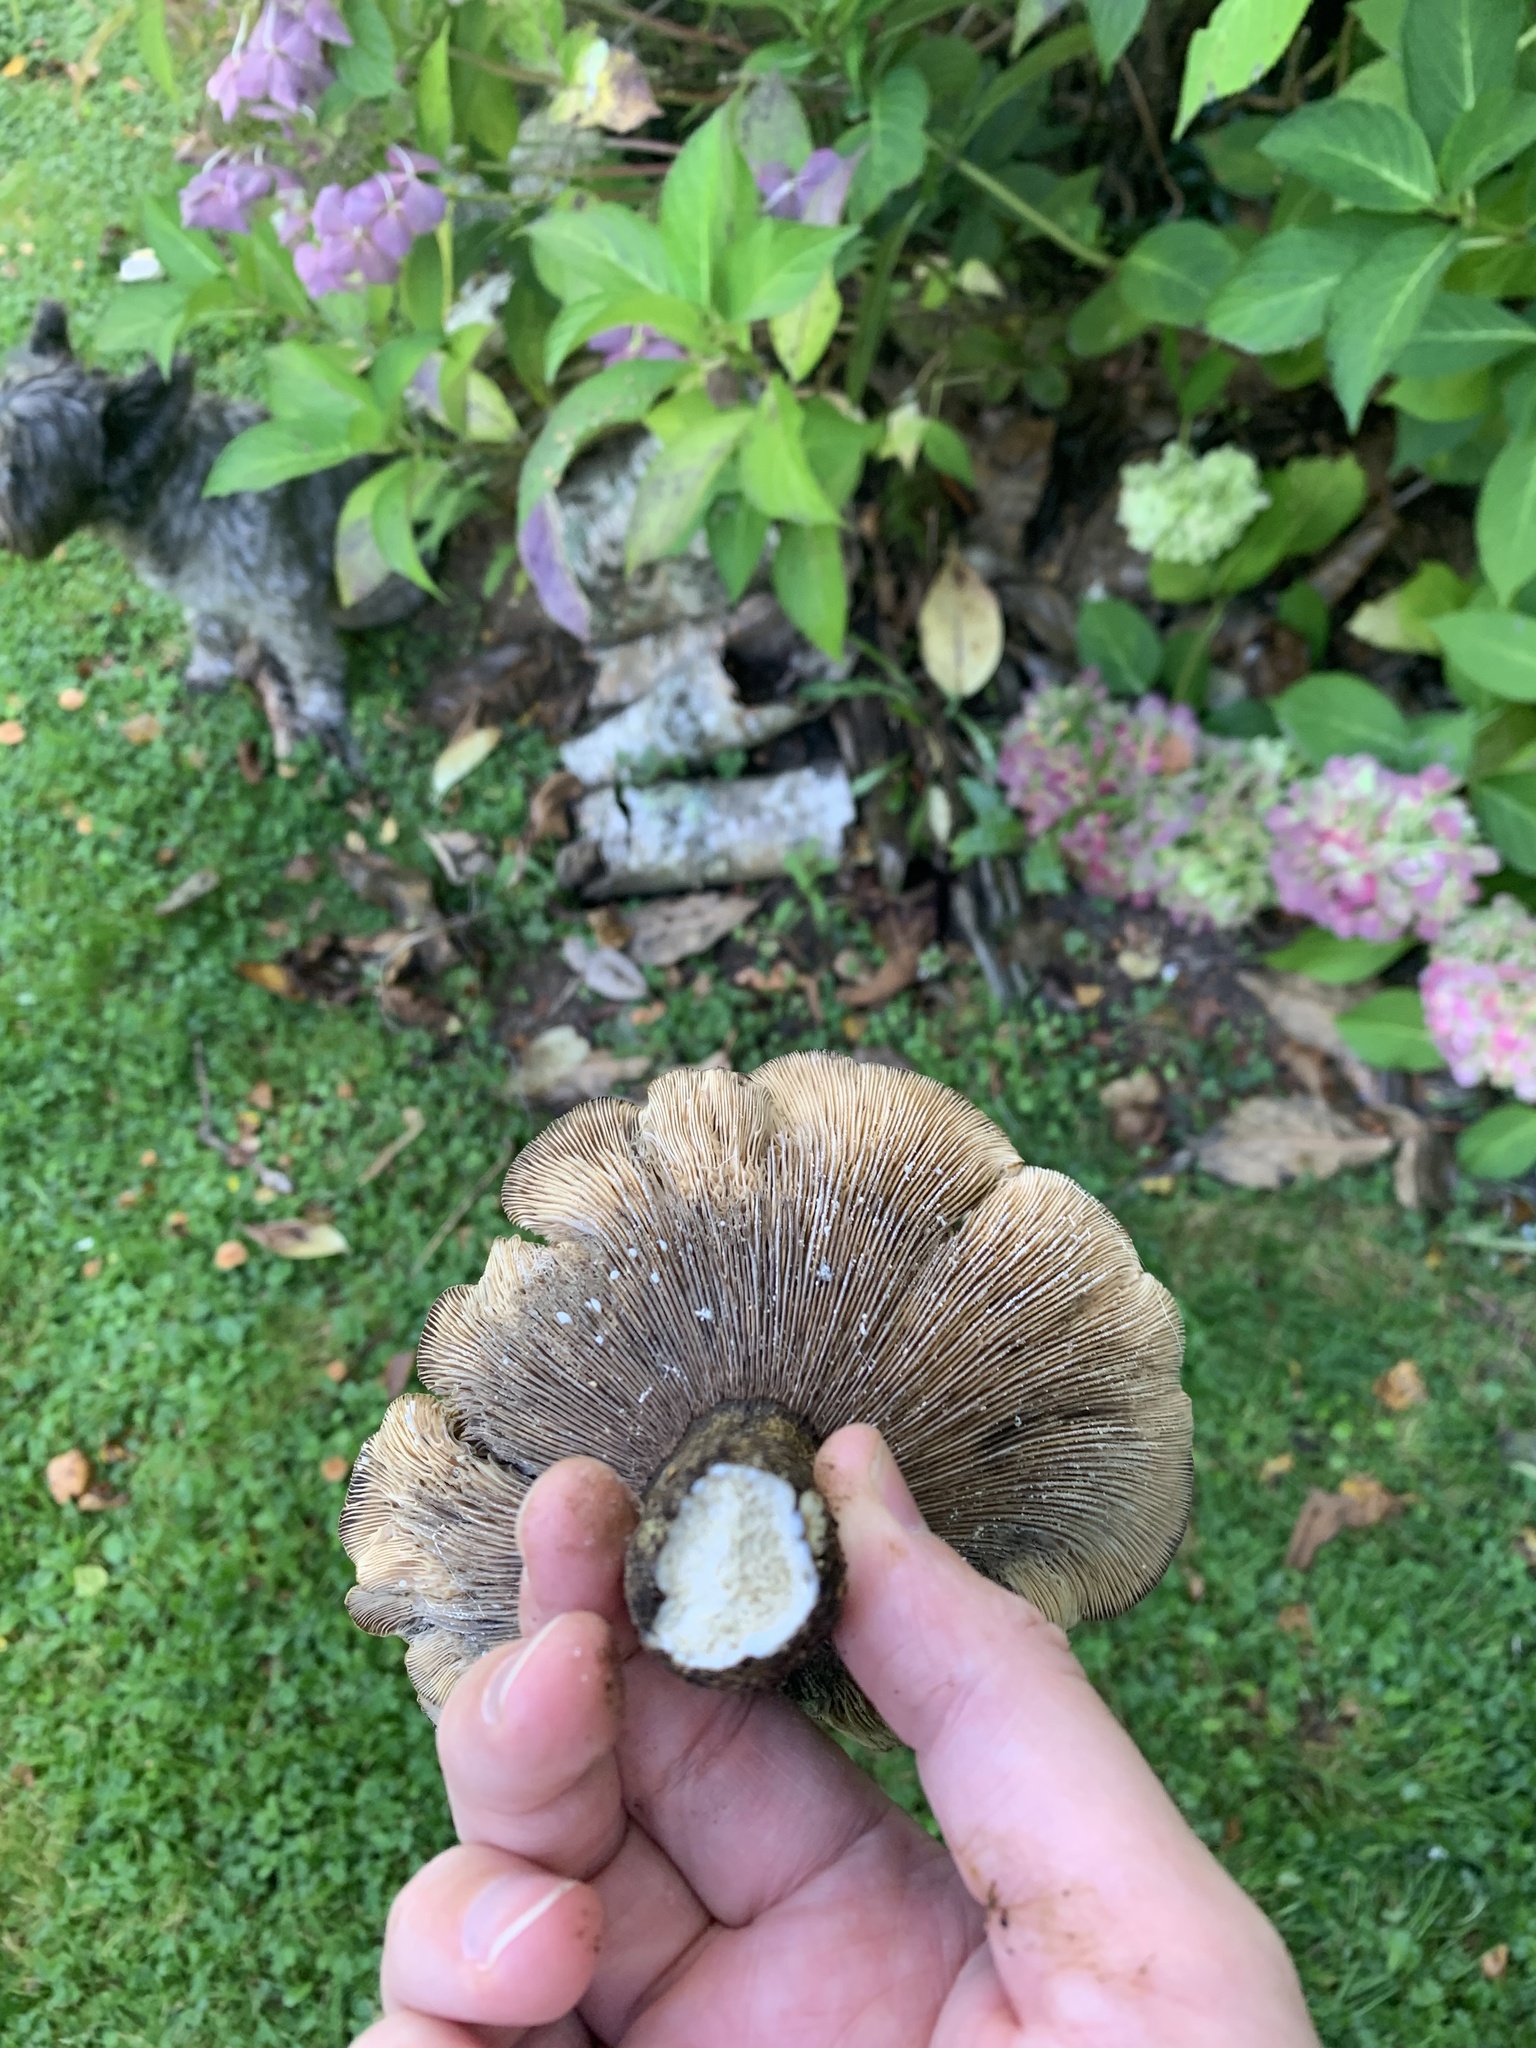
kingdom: Fungi
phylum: Basidiomycota
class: Agaricomycetes
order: Russulales
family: Russulaceae
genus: Lactarius
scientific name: Lactarius turpis
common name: Ugly milk-cap
